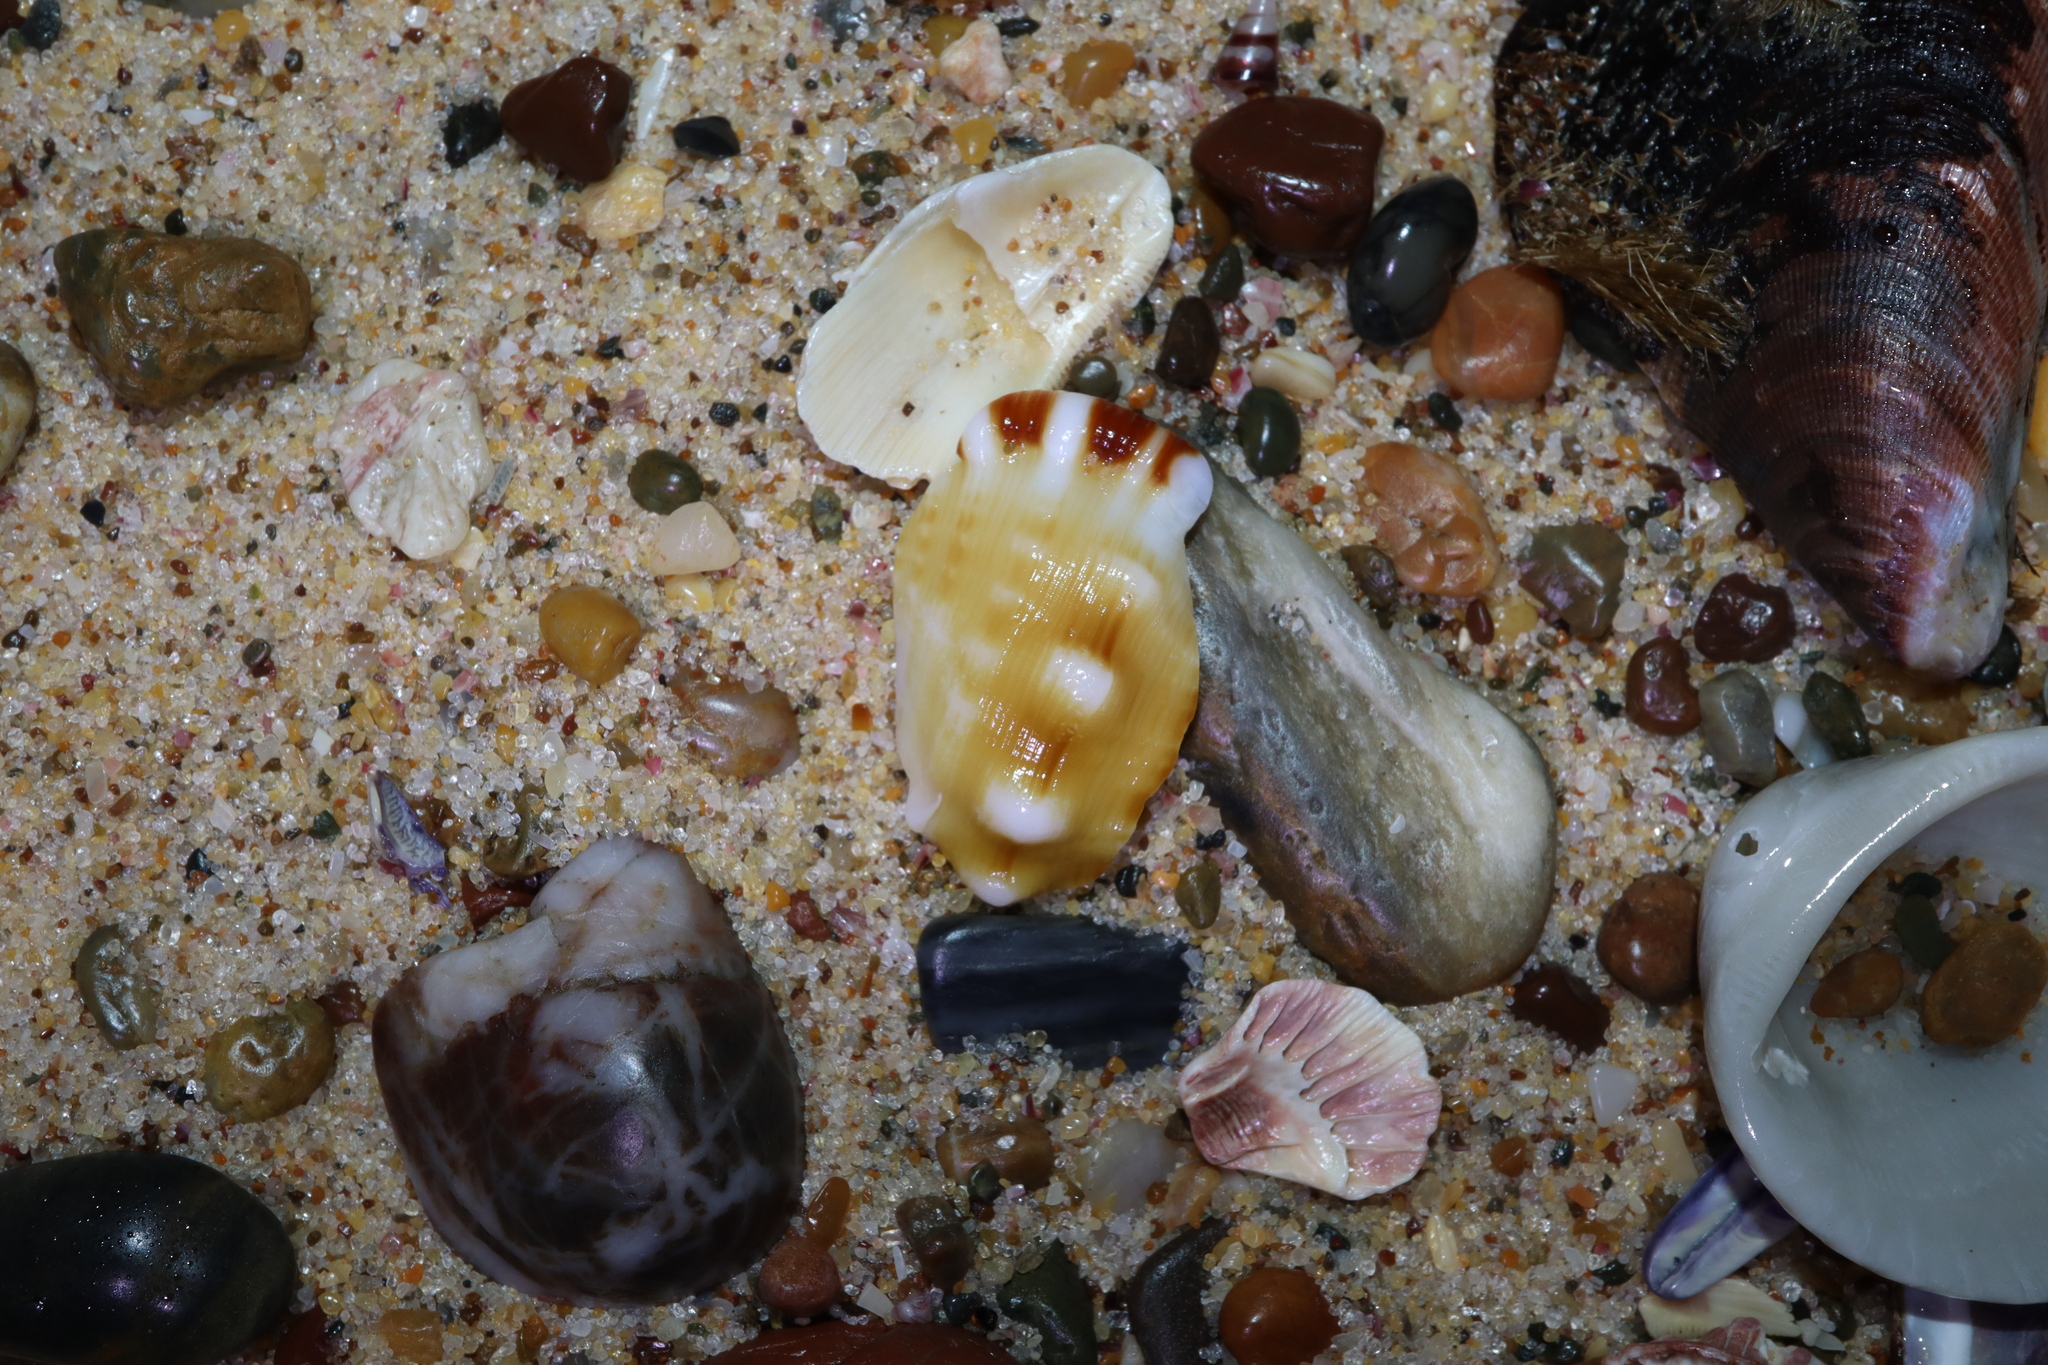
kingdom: Animalia
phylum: Mollusca
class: Gastropoda
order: Littorinimorpha
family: Ranellidae
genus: Ranella
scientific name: Ranella australasia
